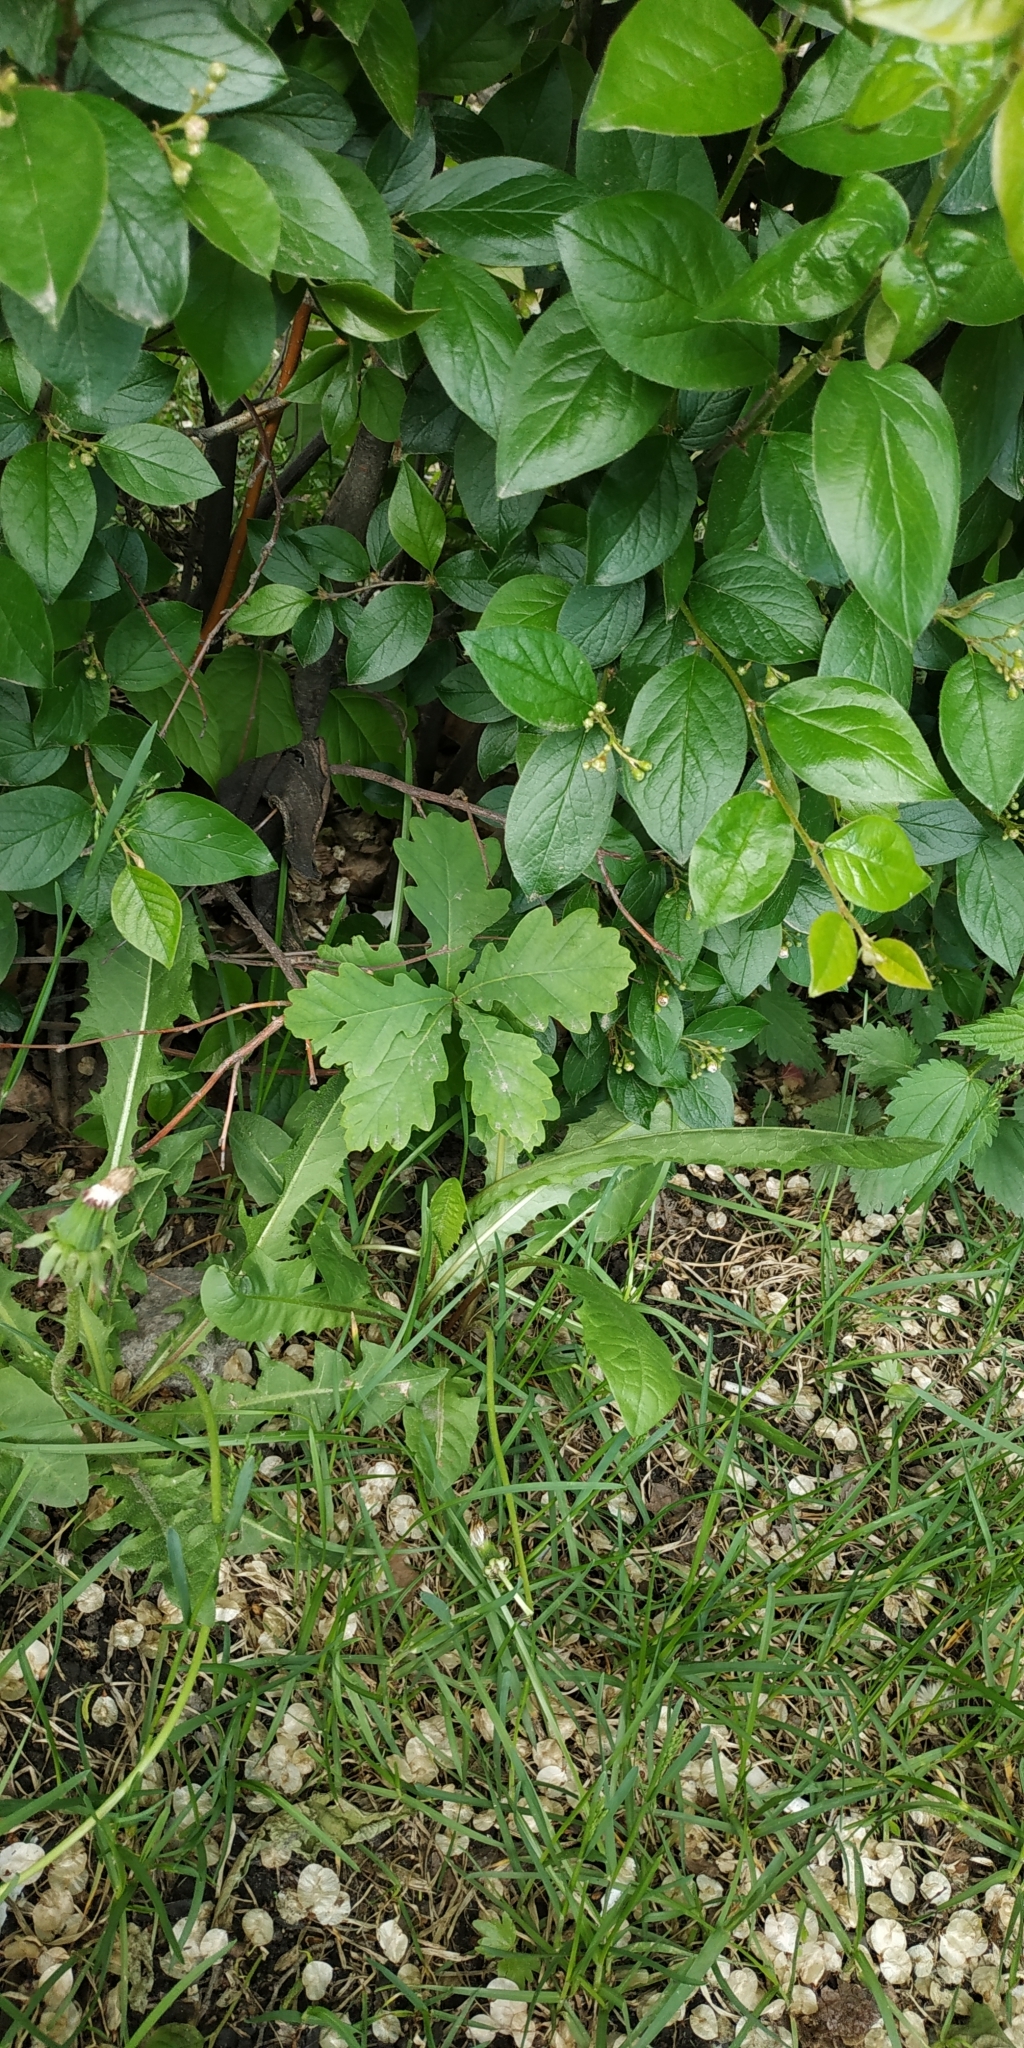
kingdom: Plantae
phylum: Tracheophyta
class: Magnoliopsida
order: Fagales
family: Fagaceae
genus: Quercus
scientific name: Quercus robur
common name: Pedunculate oak
